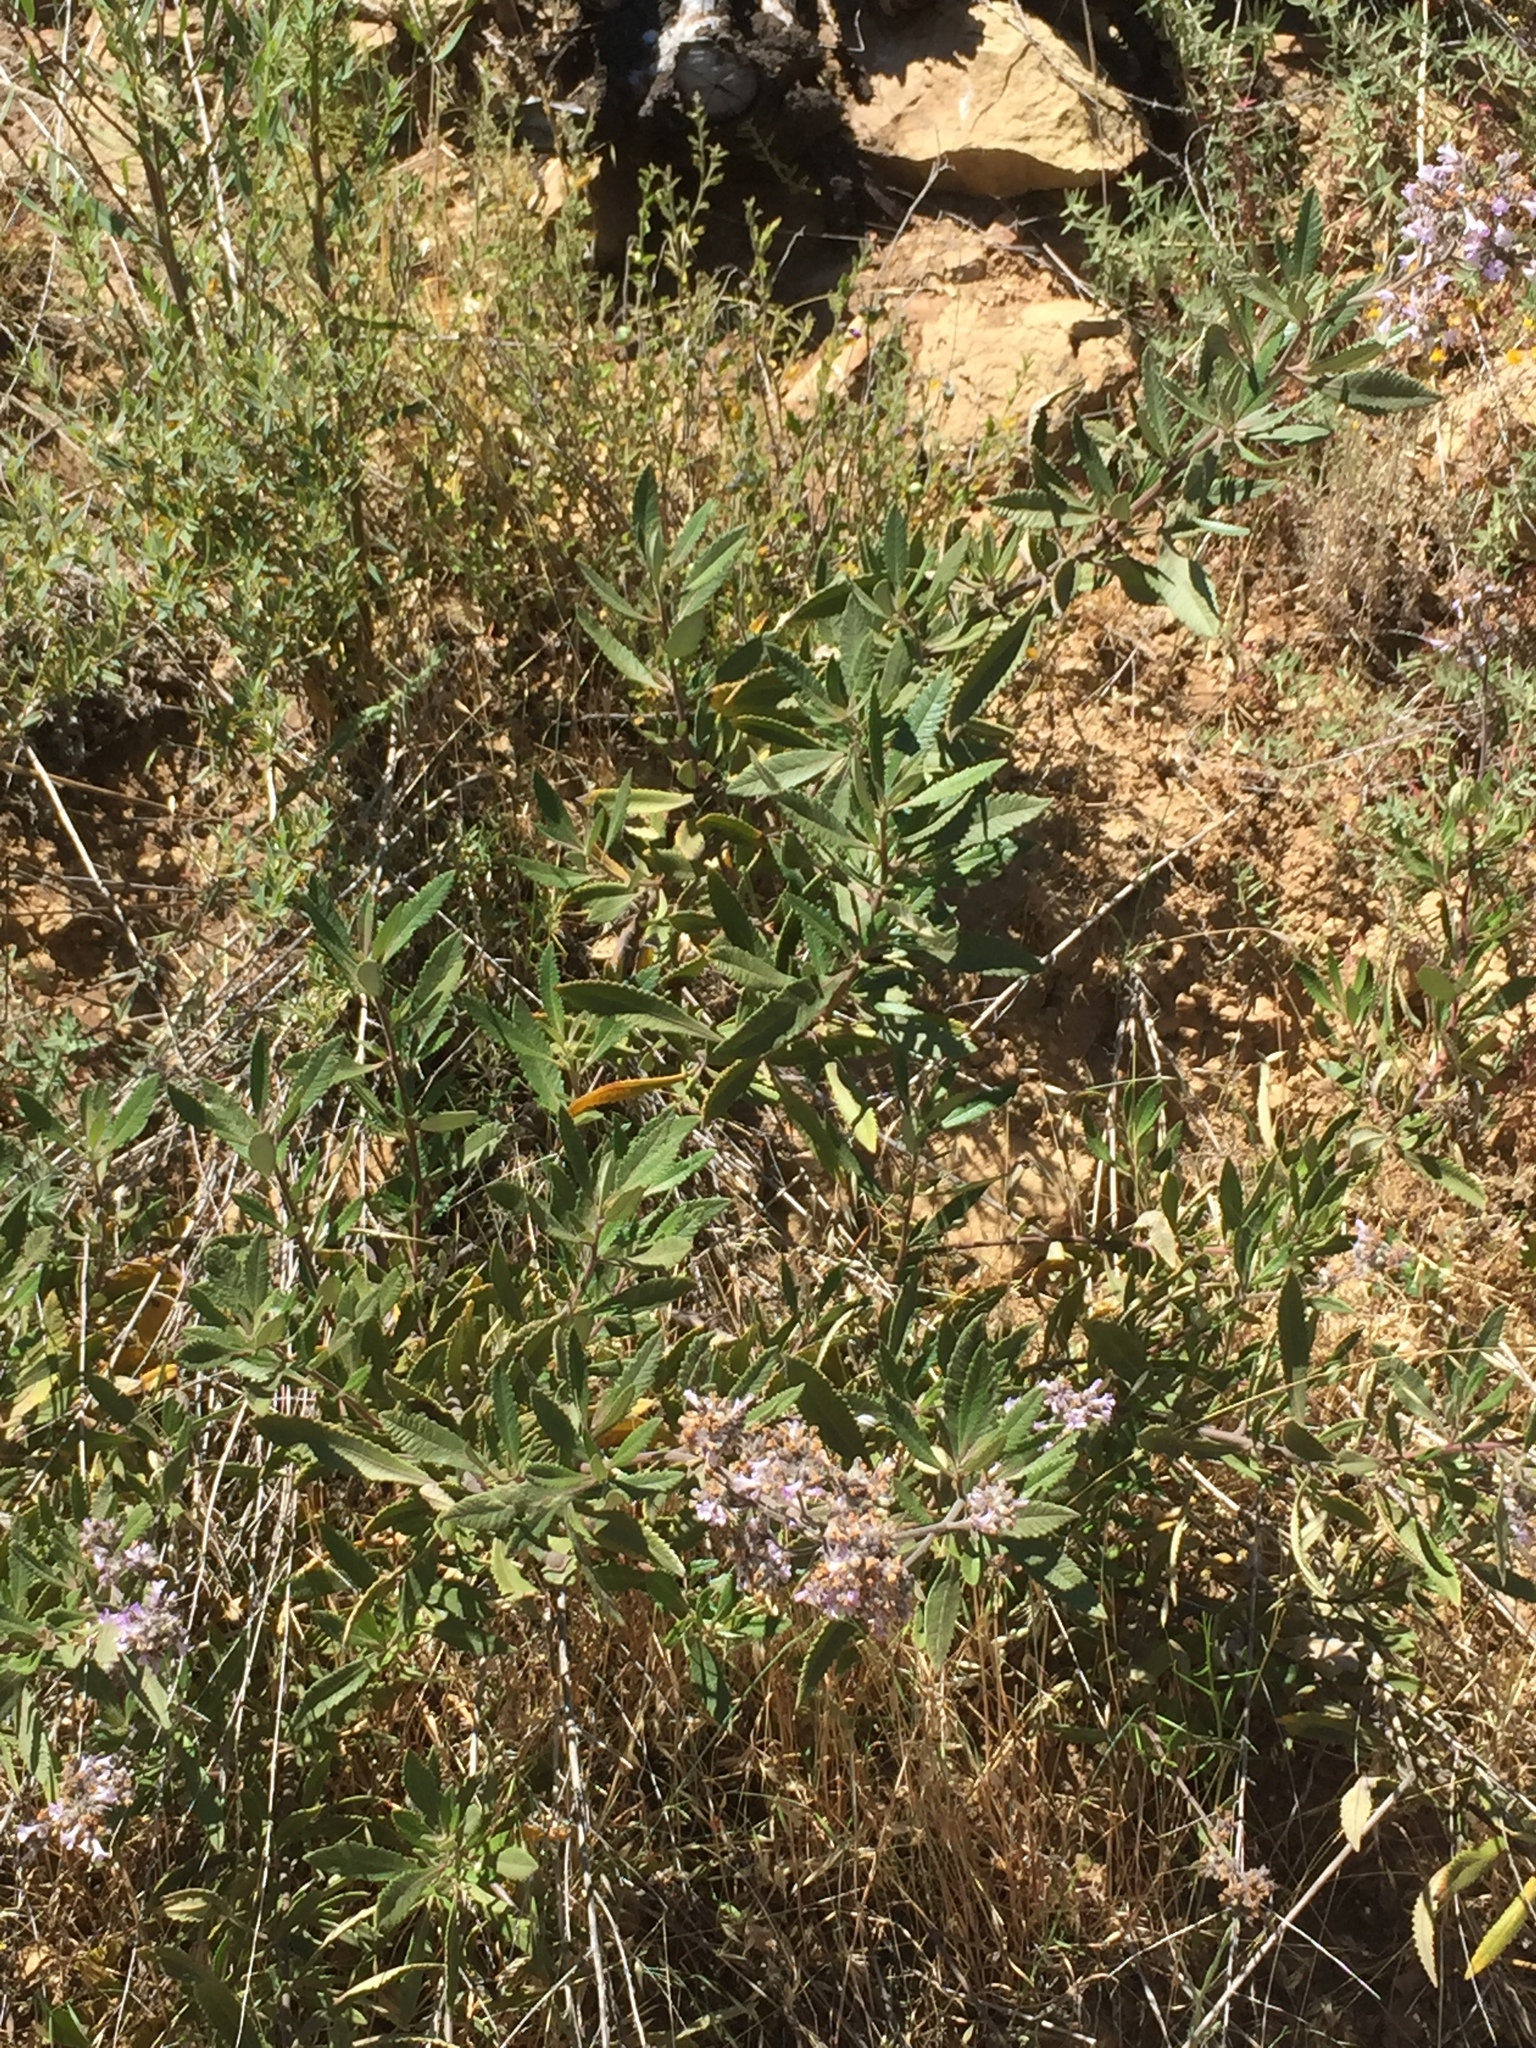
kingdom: Plantae
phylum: Tracheophyta
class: Magnoliopsida
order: Boraginales
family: Namaceae
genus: Eriodictyon
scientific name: Eriodictyon crassifolium
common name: Thick-leaf yerba-santa
